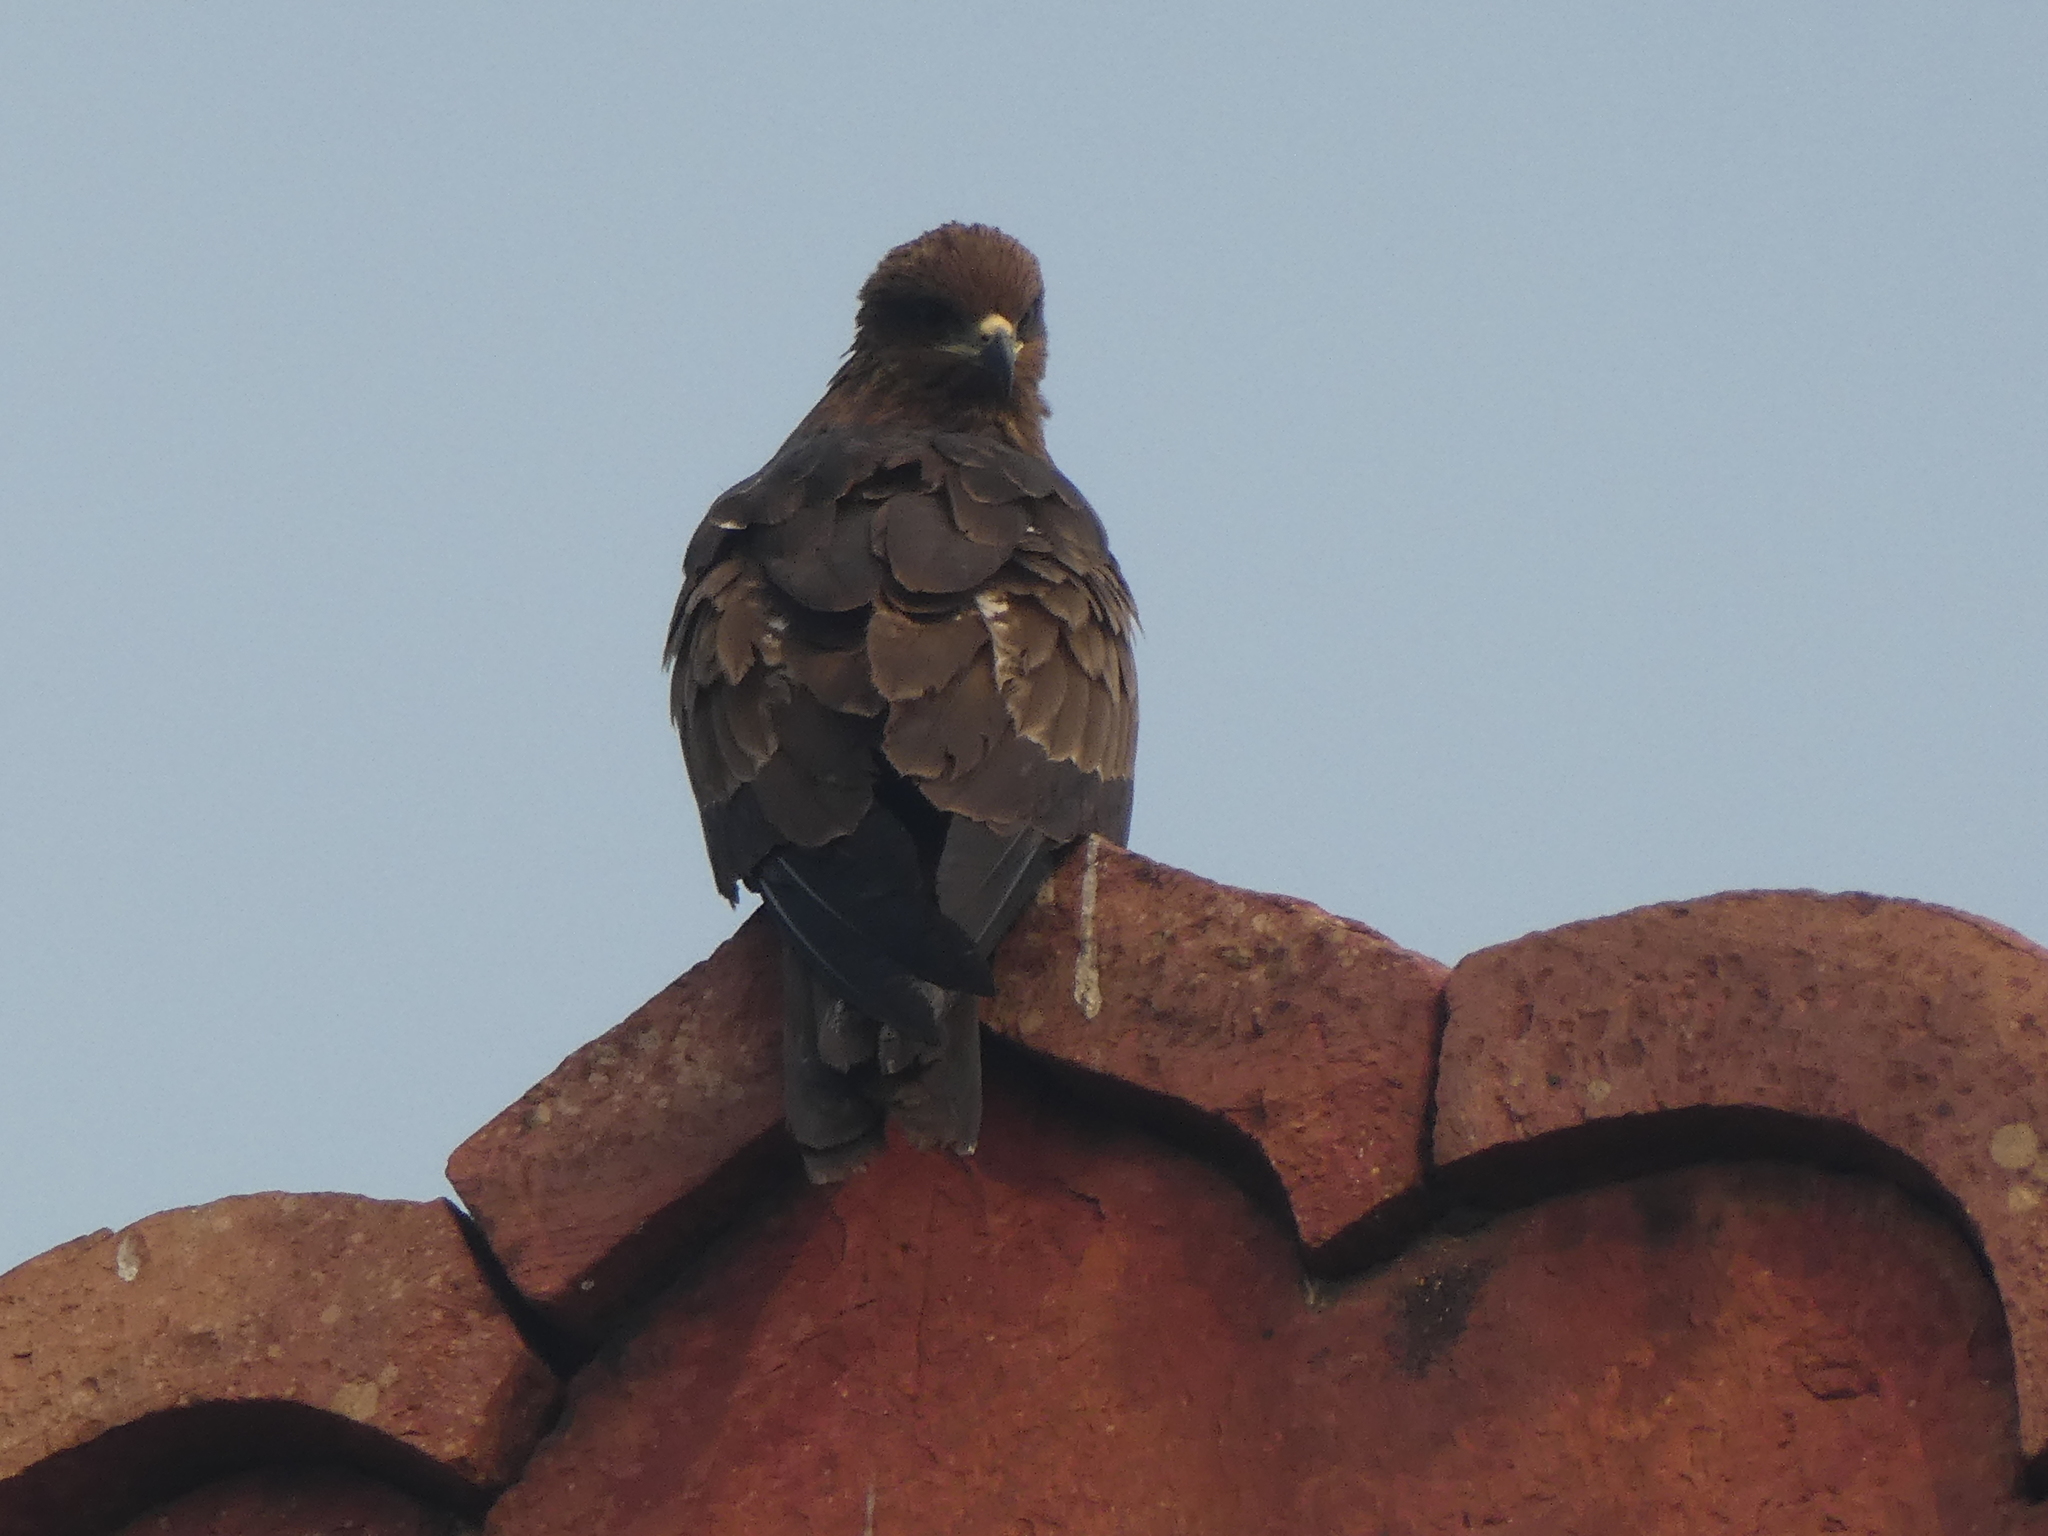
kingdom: Animalia
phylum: Chordata
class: Aves
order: Accipitriformes
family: Accipitridae
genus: Milvus
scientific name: Milvus migrans
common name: Black kite
